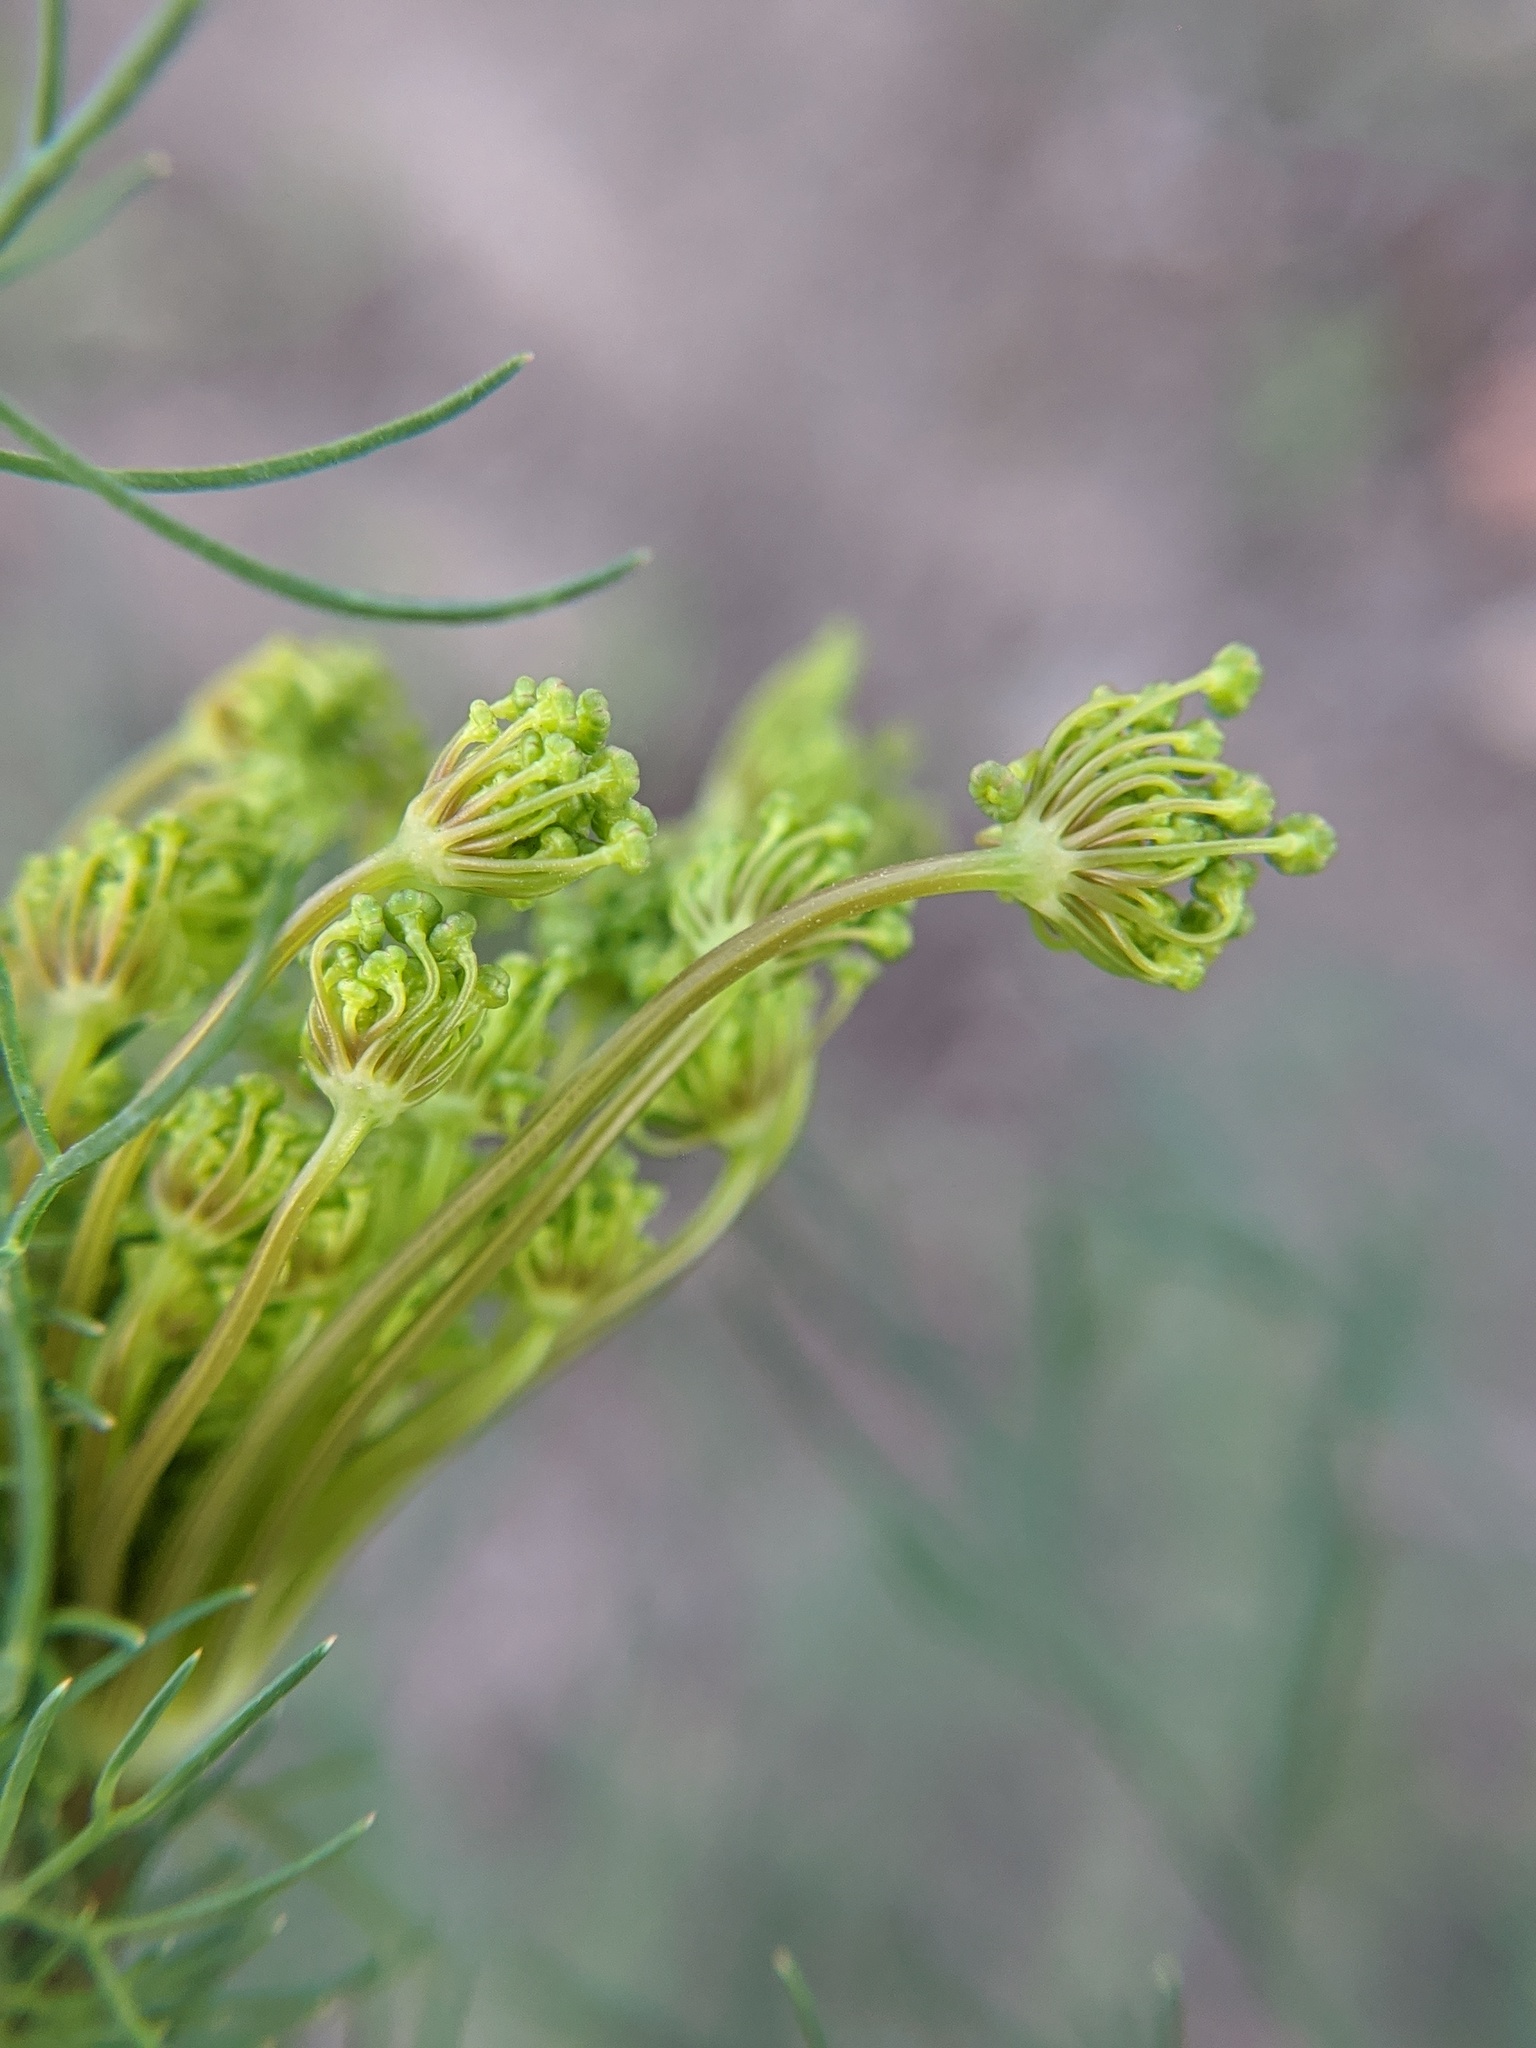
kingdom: Plantae
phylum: Tracheophyta
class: Magnoliopsida
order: Apiales
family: Apiaceae
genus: Anethum
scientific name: Anethum graveolens
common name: Dill
